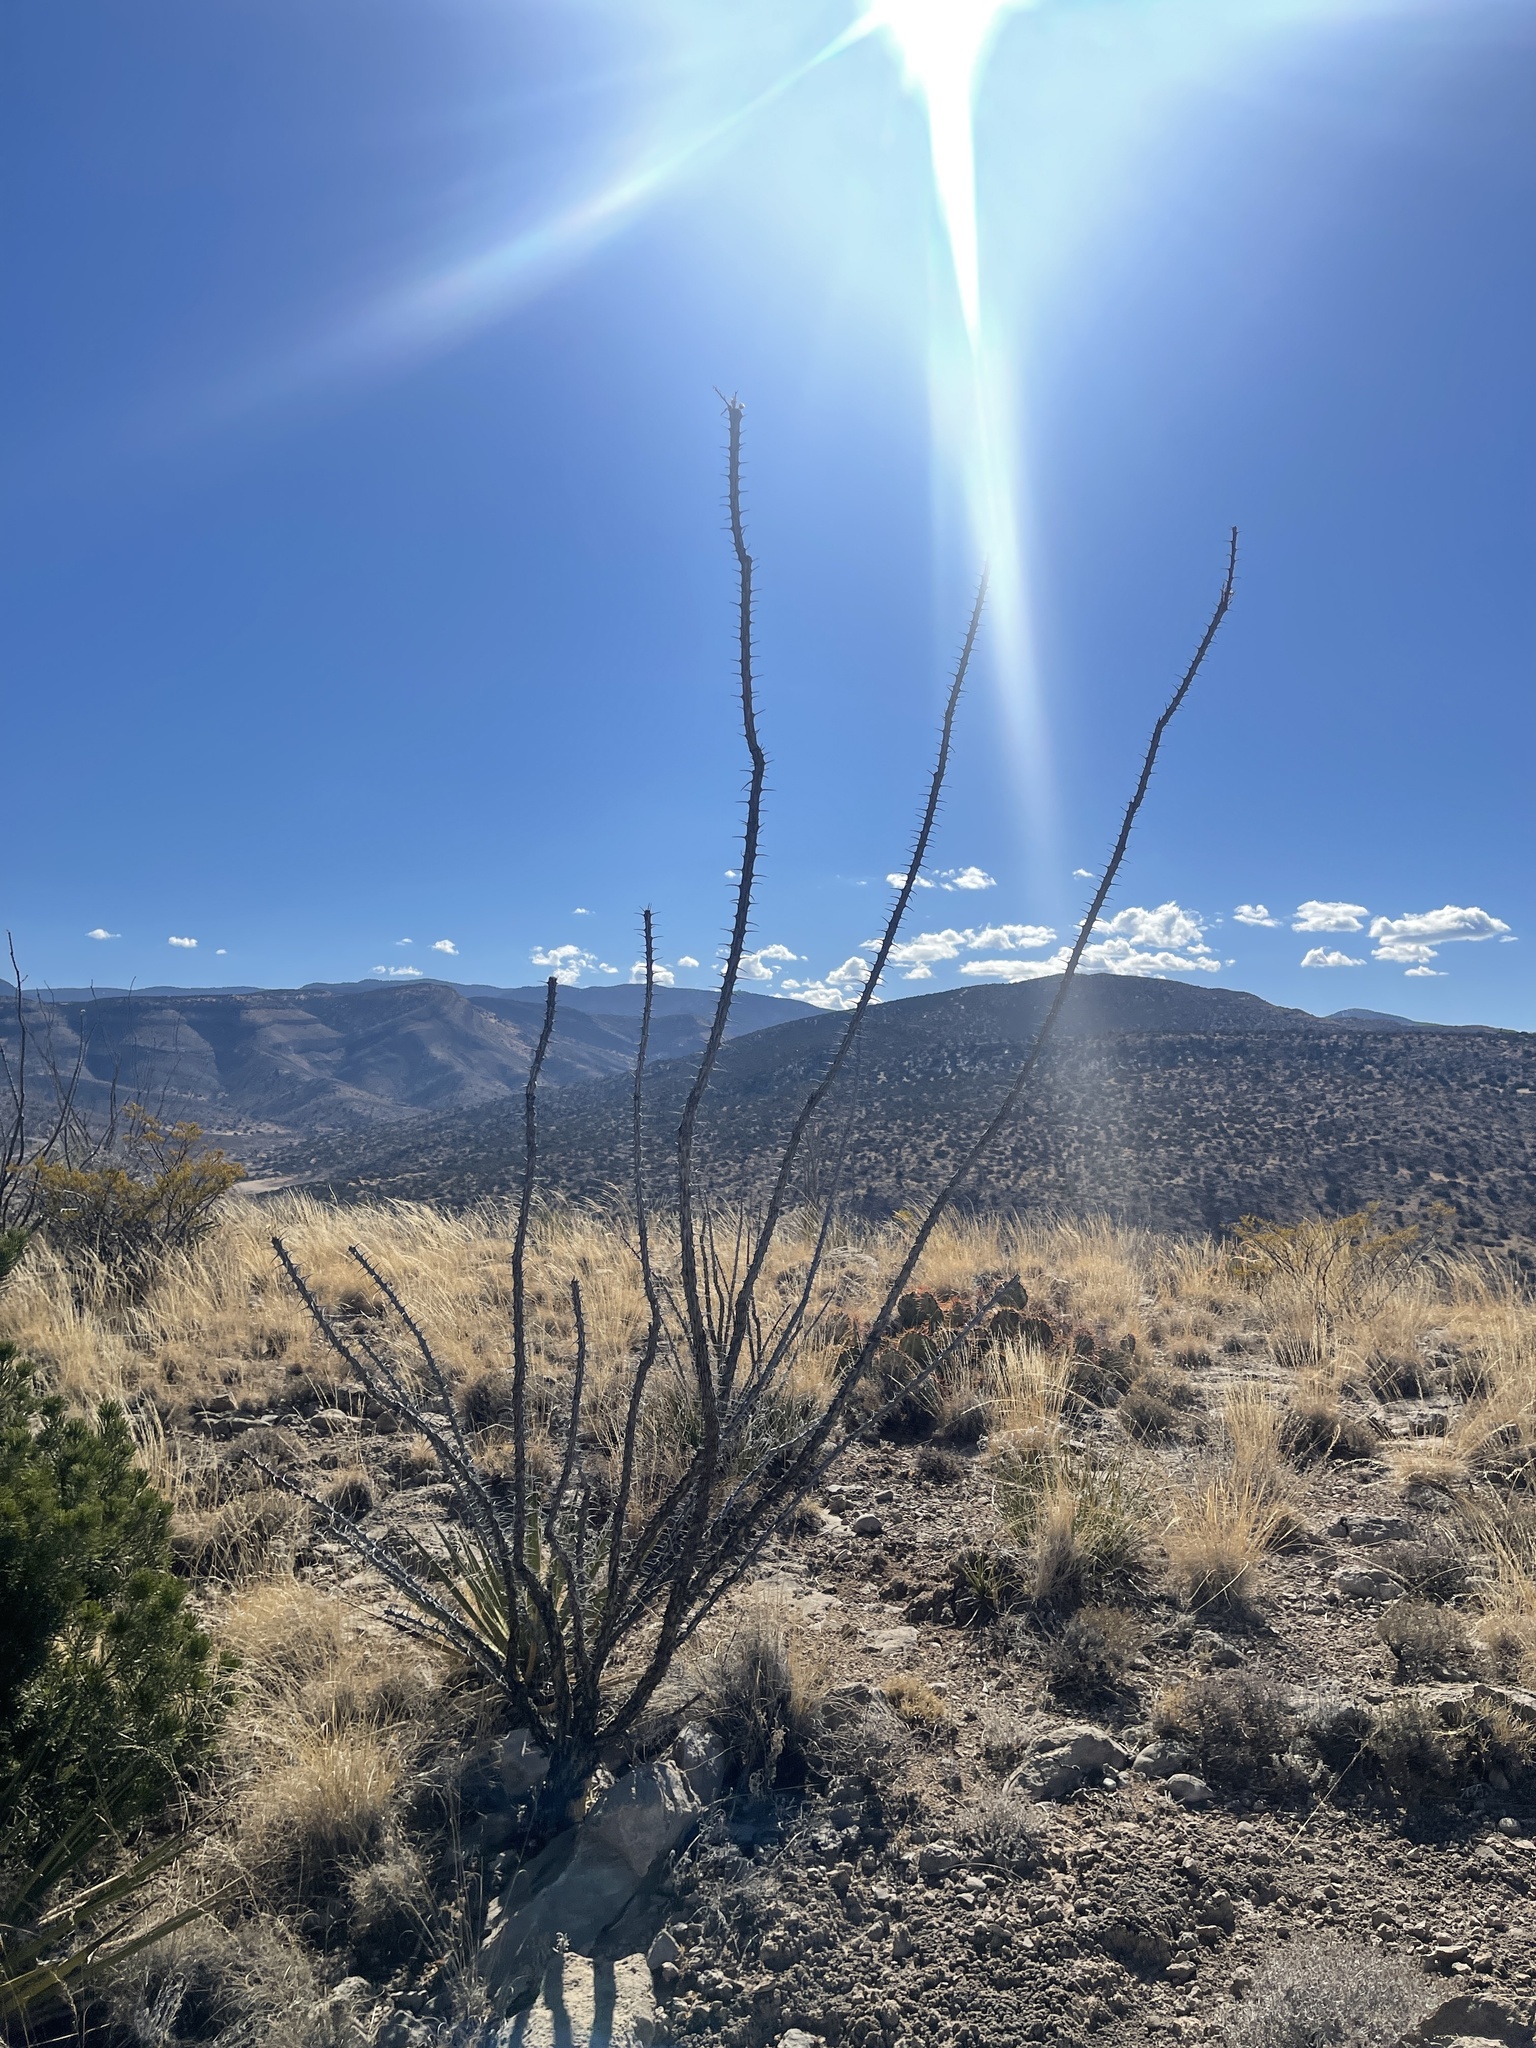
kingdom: Plantae
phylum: Tracheophyta
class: Magnoliopsida
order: Ericales
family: Fouquieriaceae
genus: Fouquieria
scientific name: Fouquieria splendens
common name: Vine-cactus
